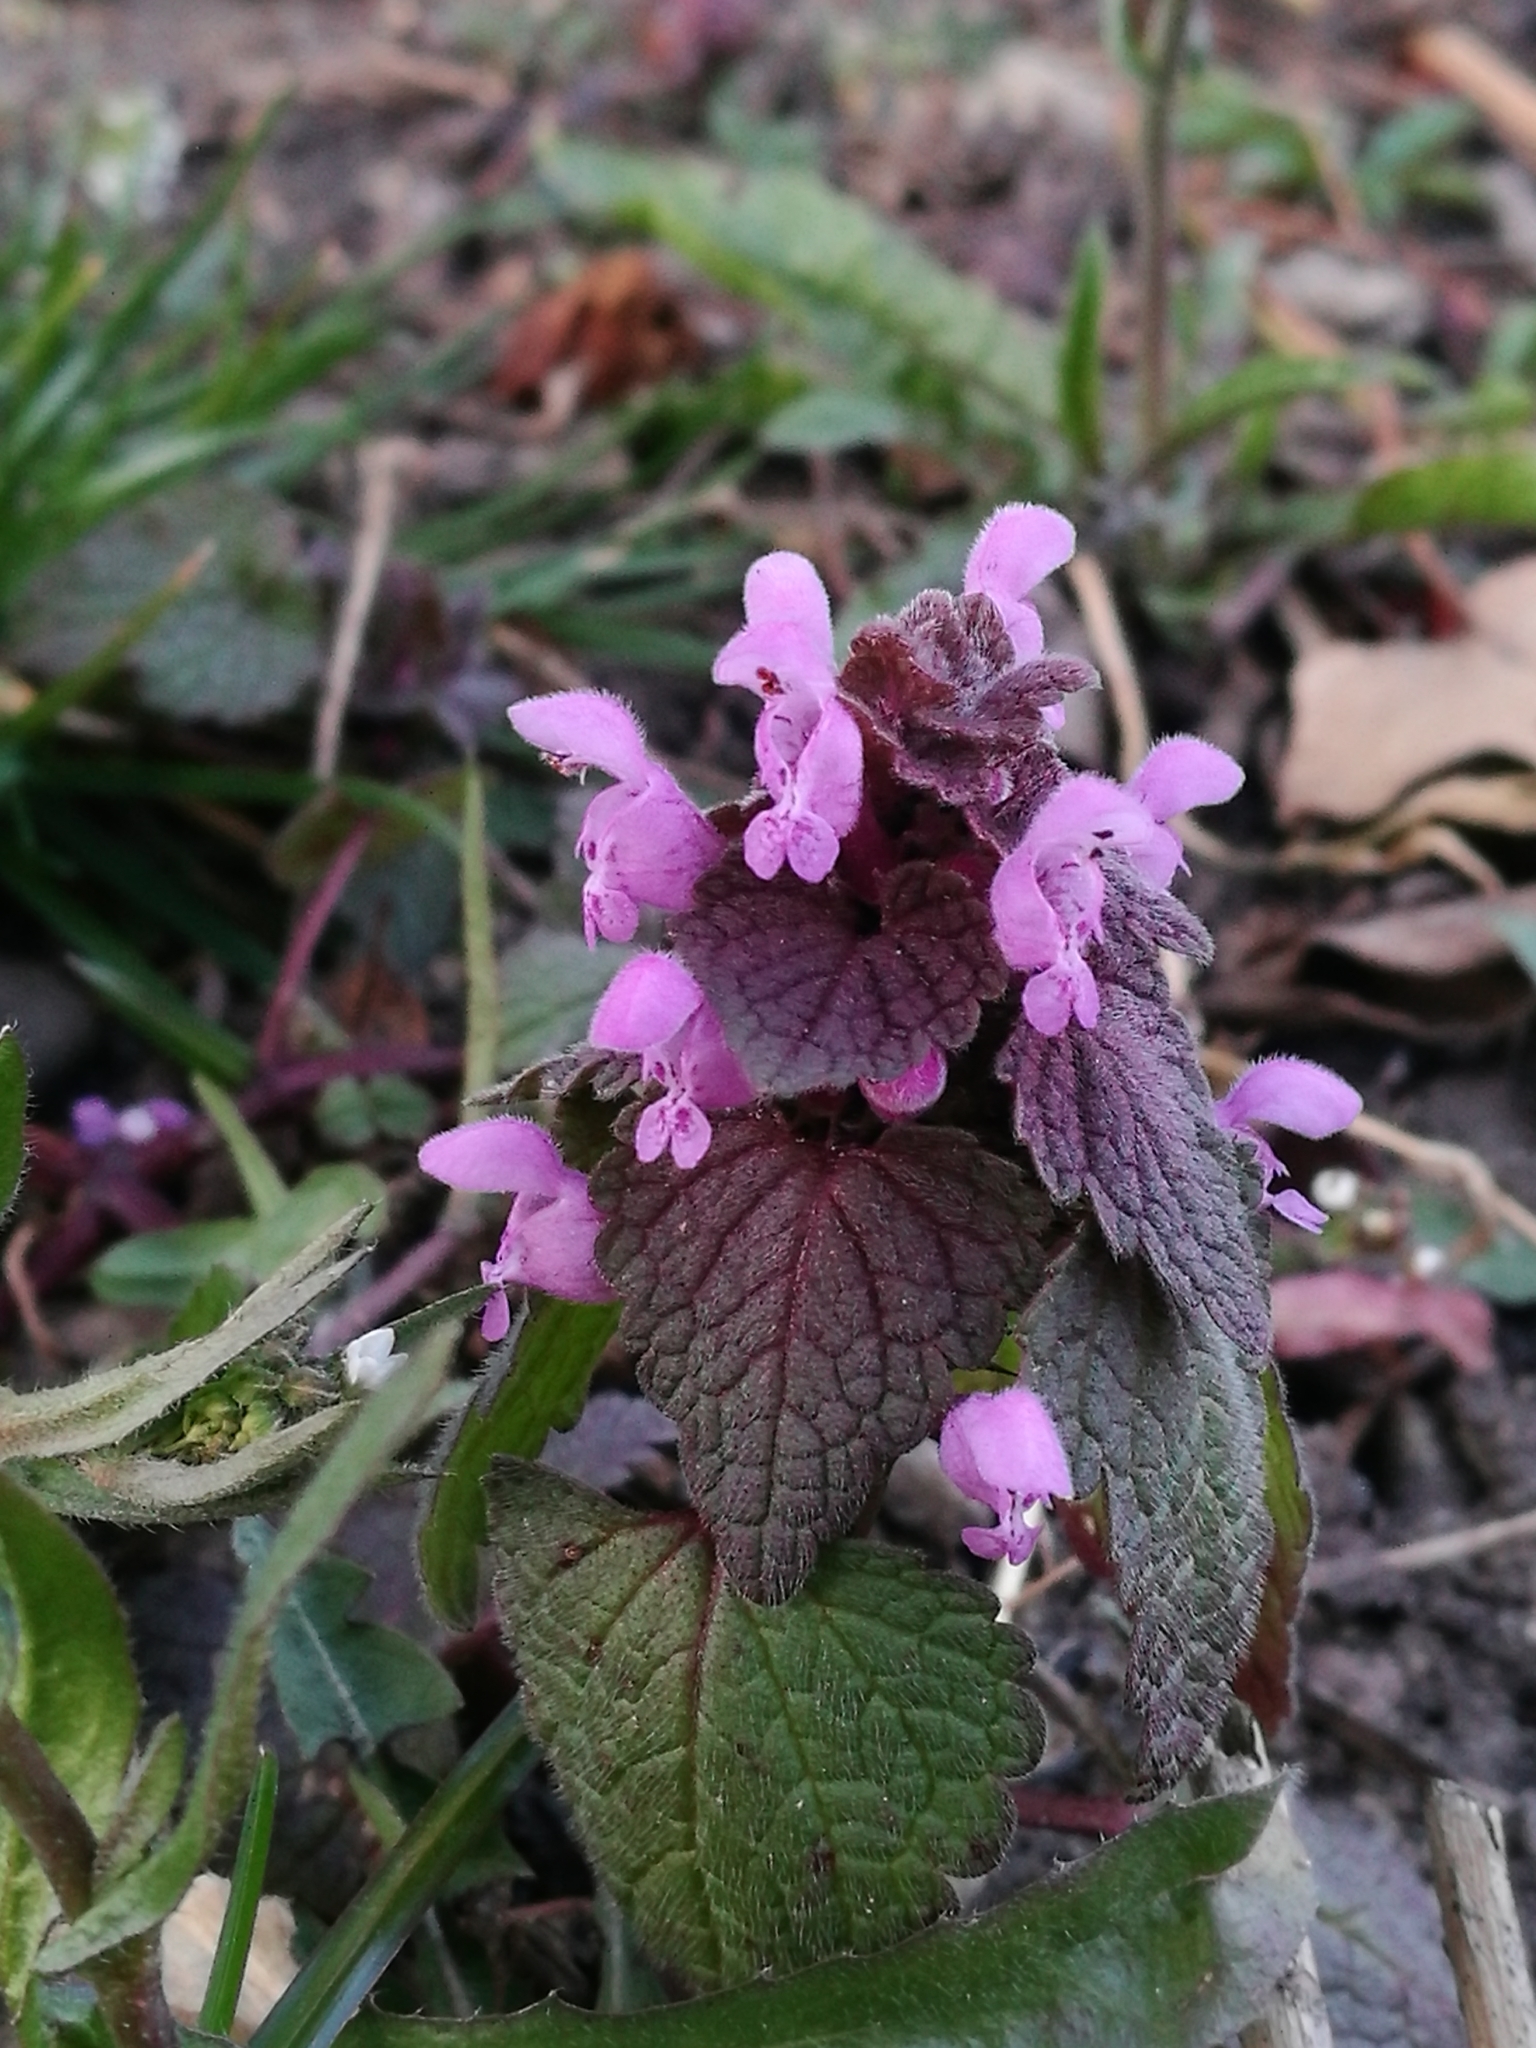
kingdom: Plantae
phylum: Tracheophyta
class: Magnoliopsida
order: Lamiales
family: Lamiaceae
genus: Lamium
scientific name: Lamium purpureum
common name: Red dead-nettle
